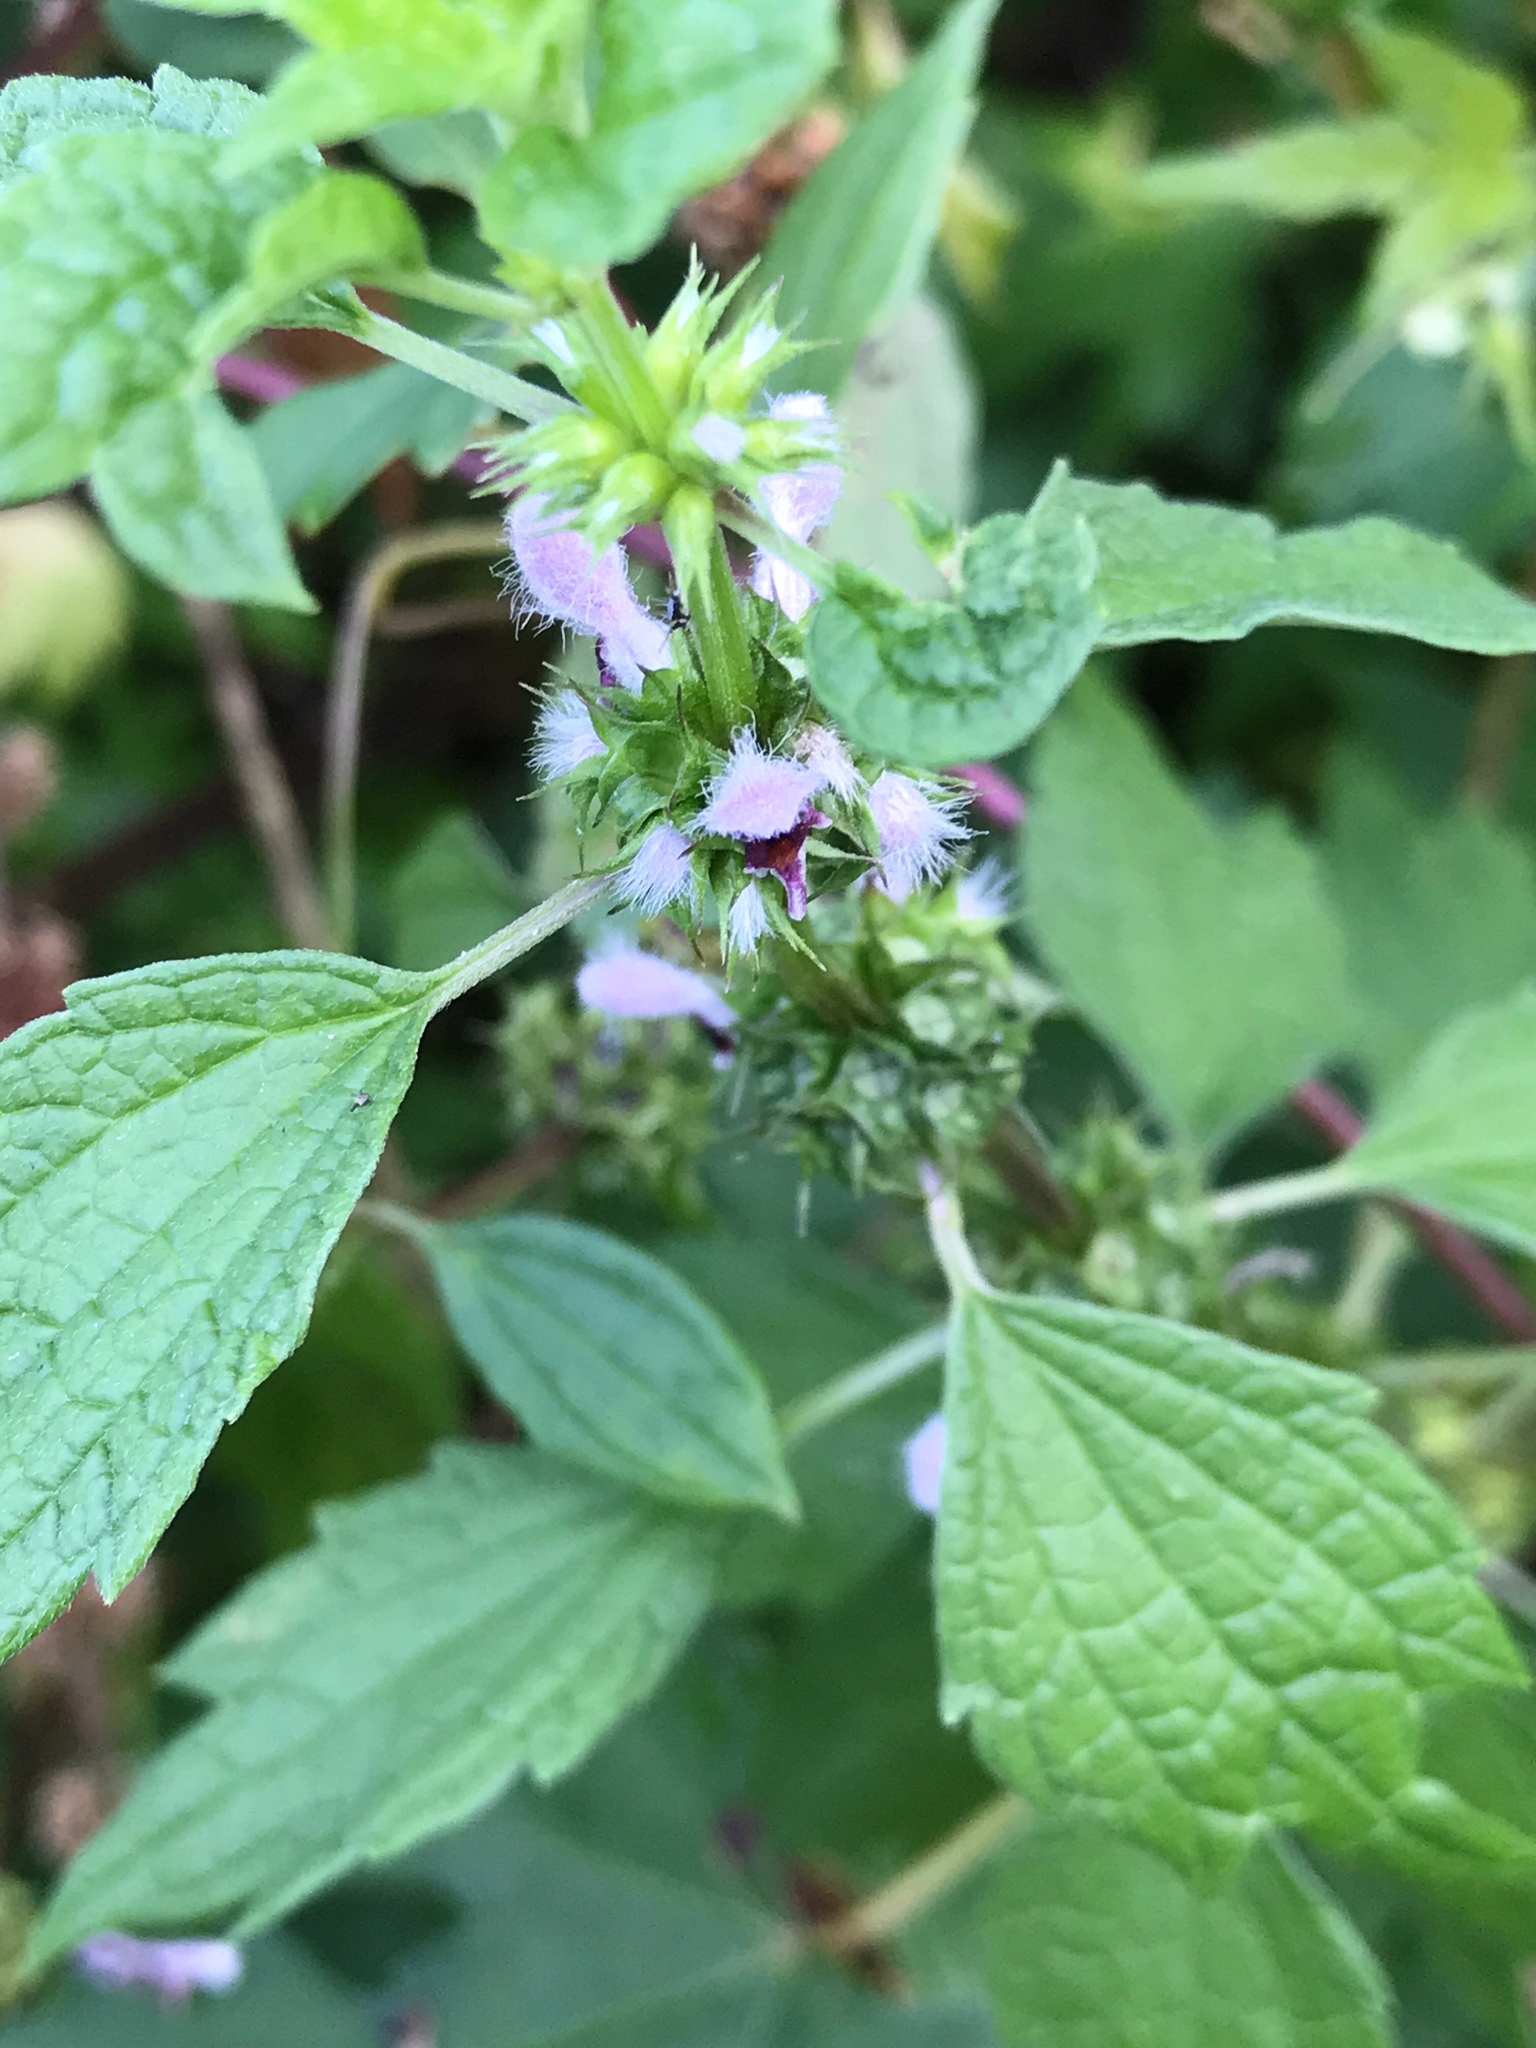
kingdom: Plantae
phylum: Tracheophyta
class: Magnoliopsida
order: Lamiales
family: Lamiaceae
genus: Leonurus
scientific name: Leonurus cardiaca
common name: Motherwort
